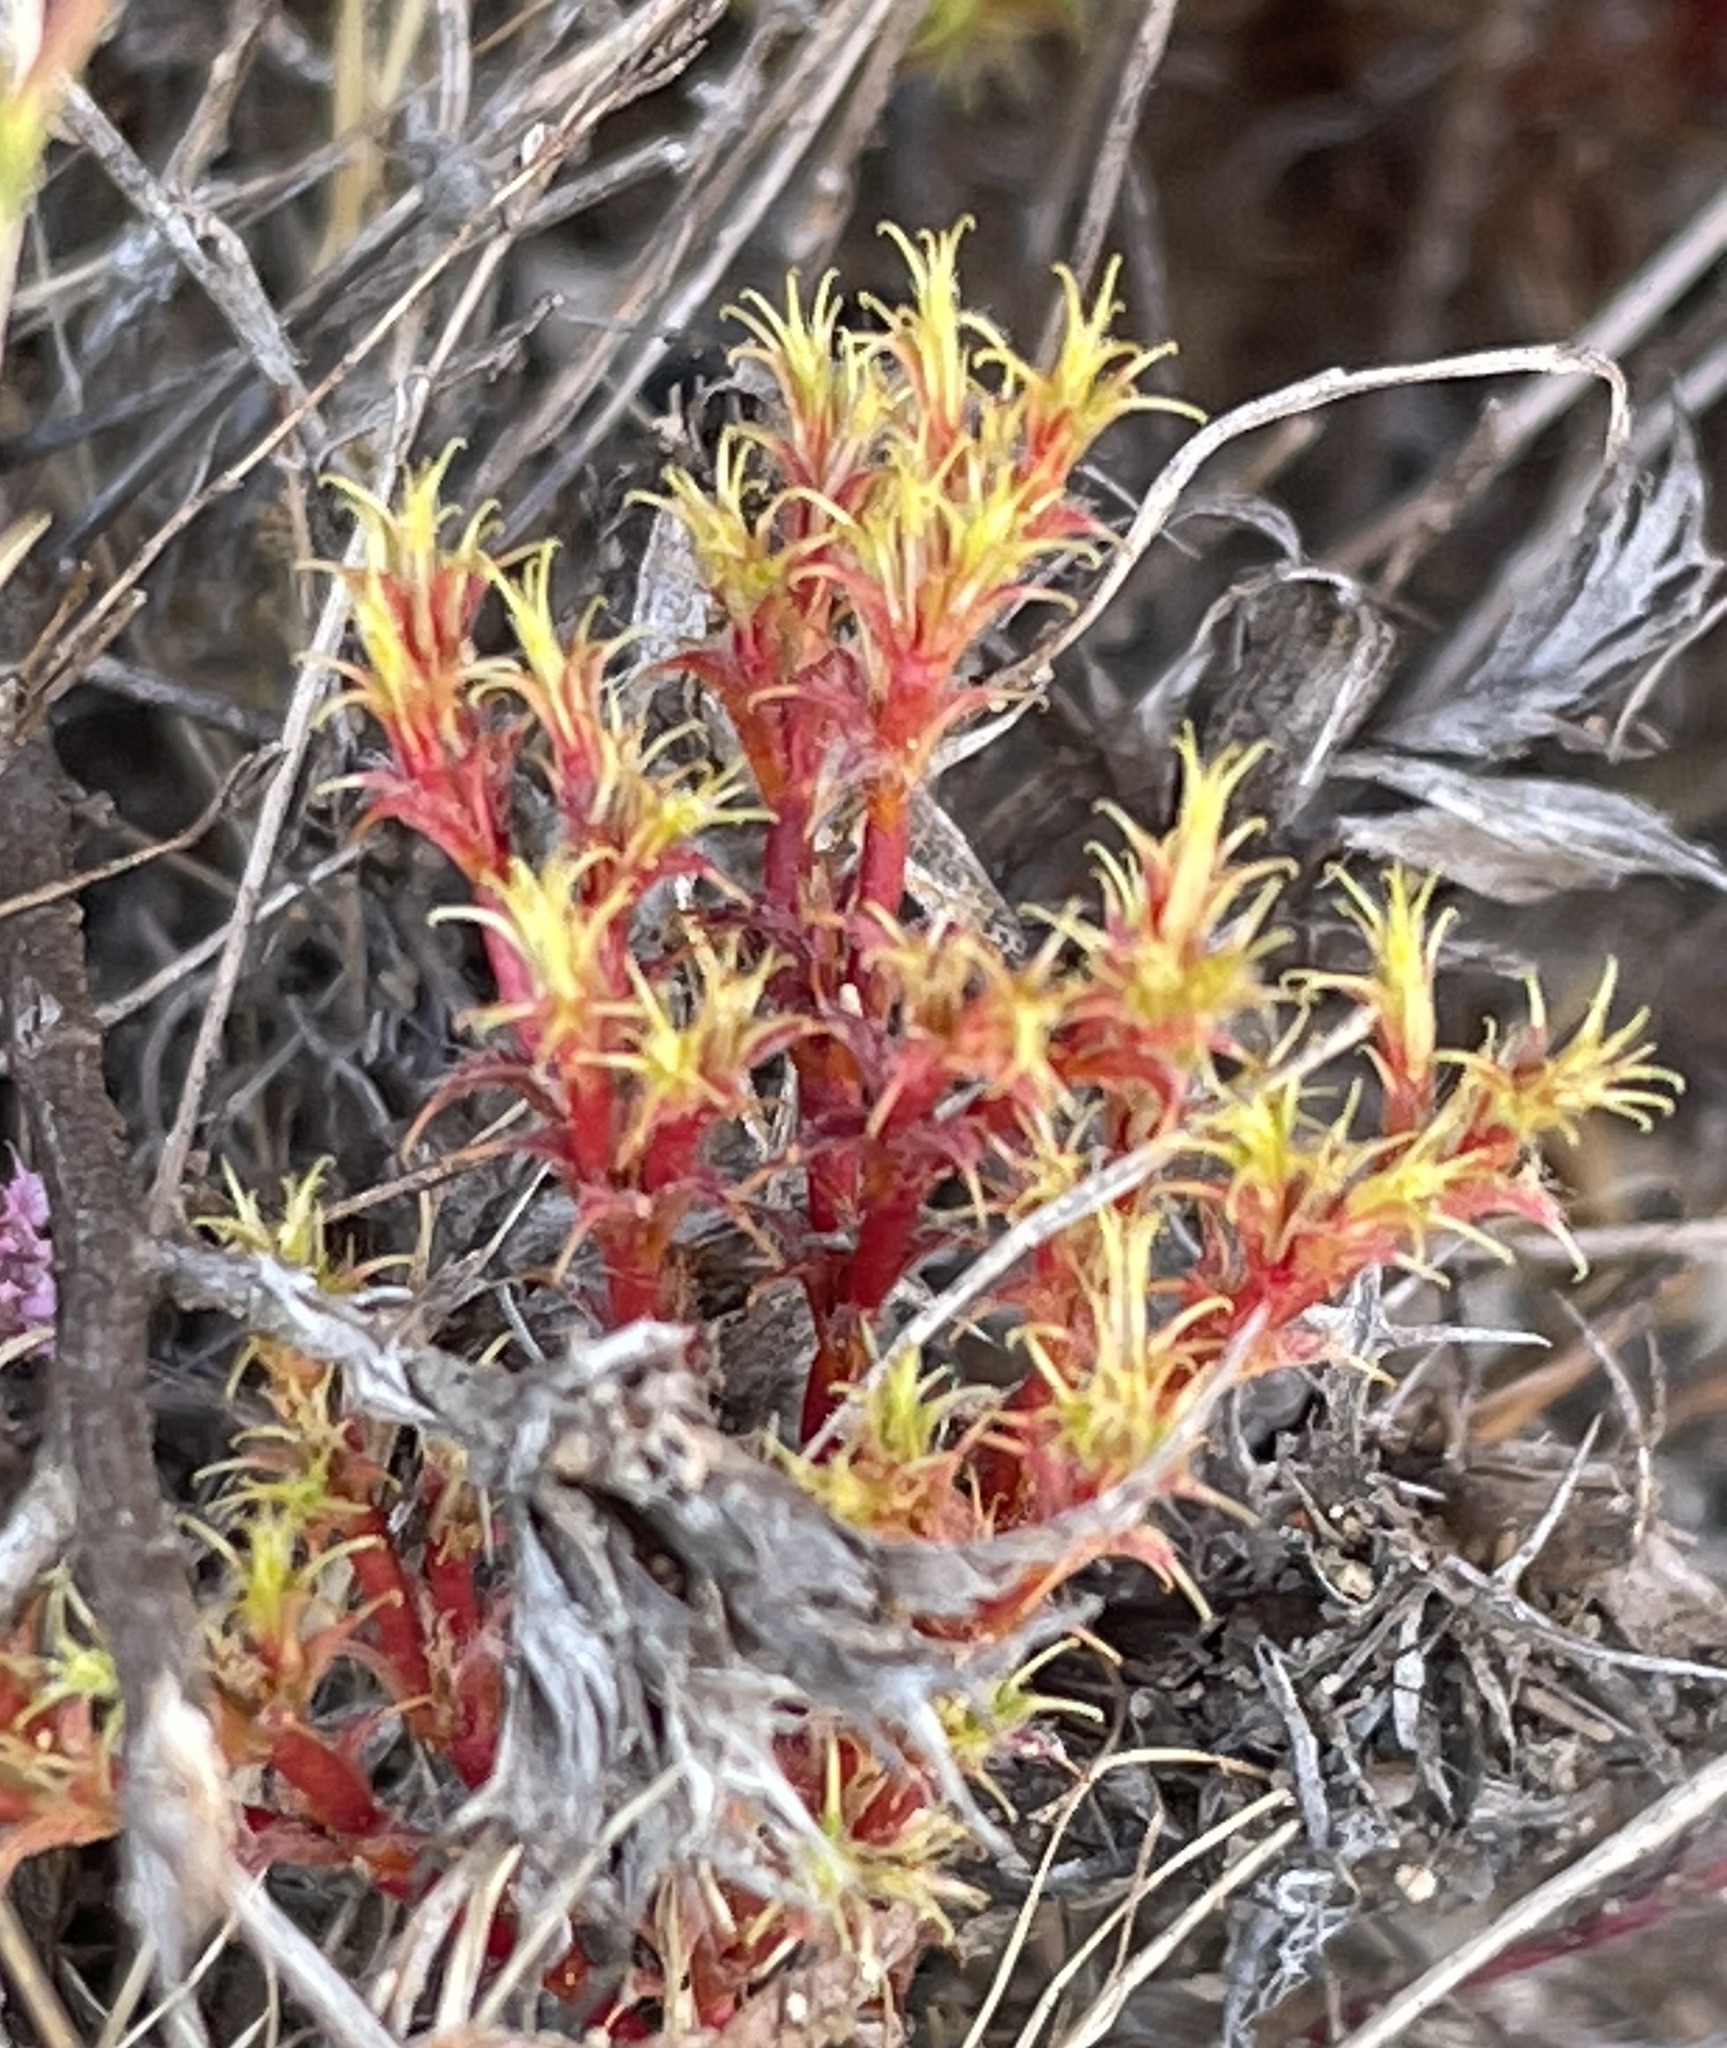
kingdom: Plantae
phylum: Tracheophyta
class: Magnoliopsida
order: Caryophyllales
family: Polygonaceae
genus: Lastarriaea
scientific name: Lastarriaea coriacea
